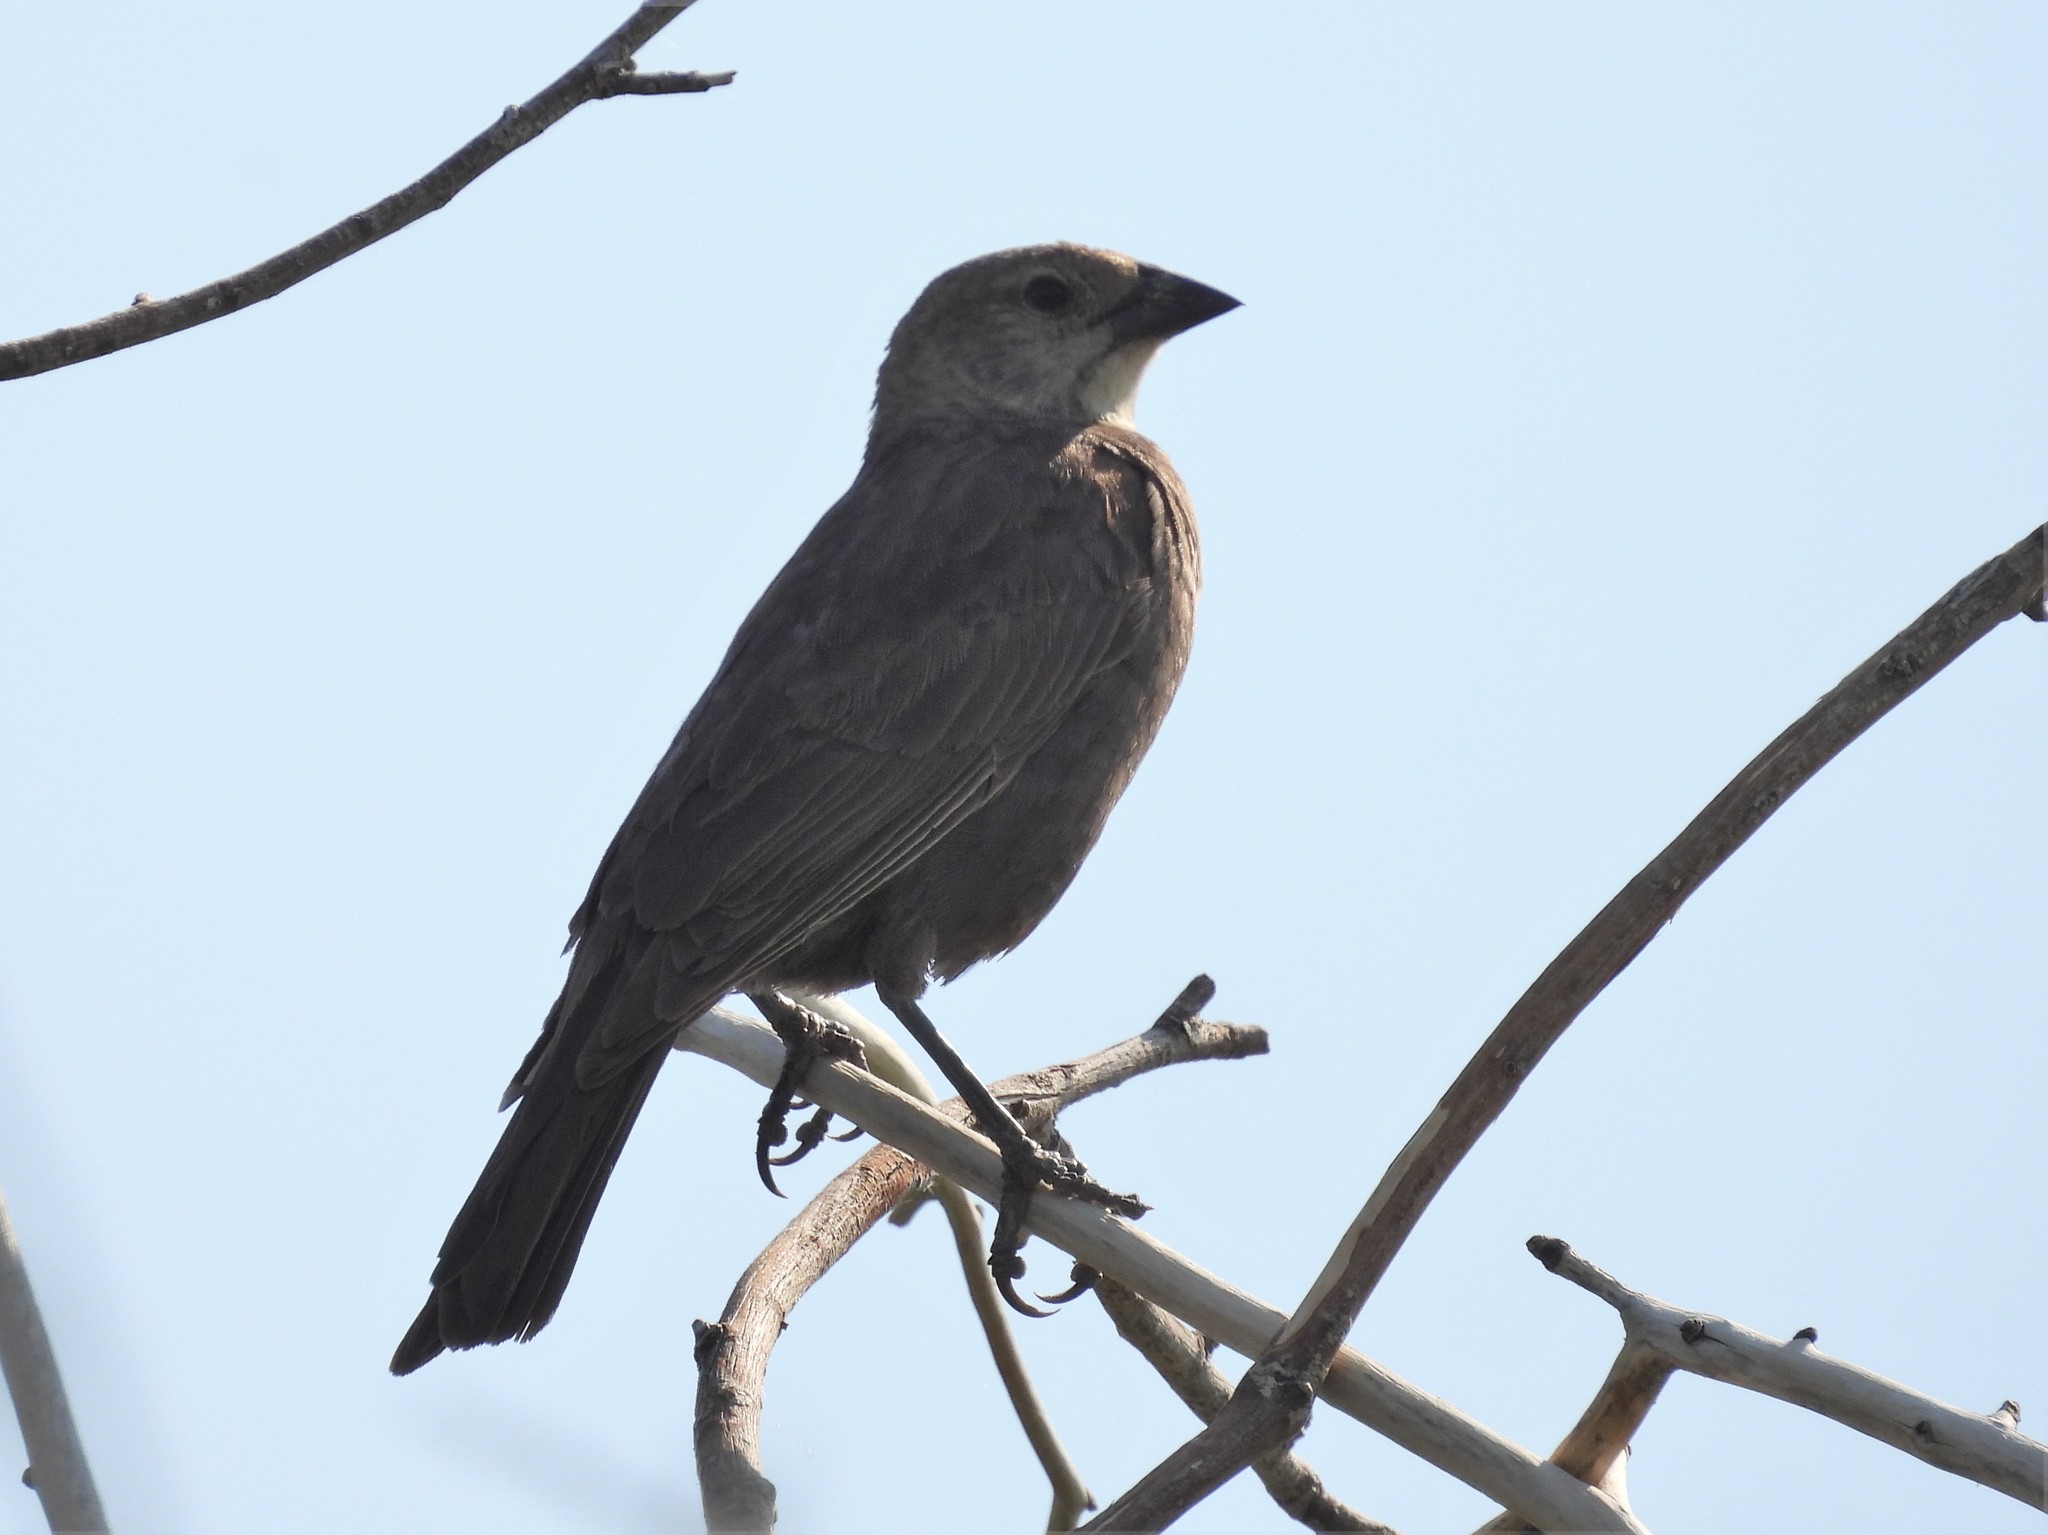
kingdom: Animalia
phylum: Chordata
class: Aves
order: Passeriformes
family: Icteridae
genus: Molothrus
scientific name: Molothrus ater
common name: Brown-headed cowbird
